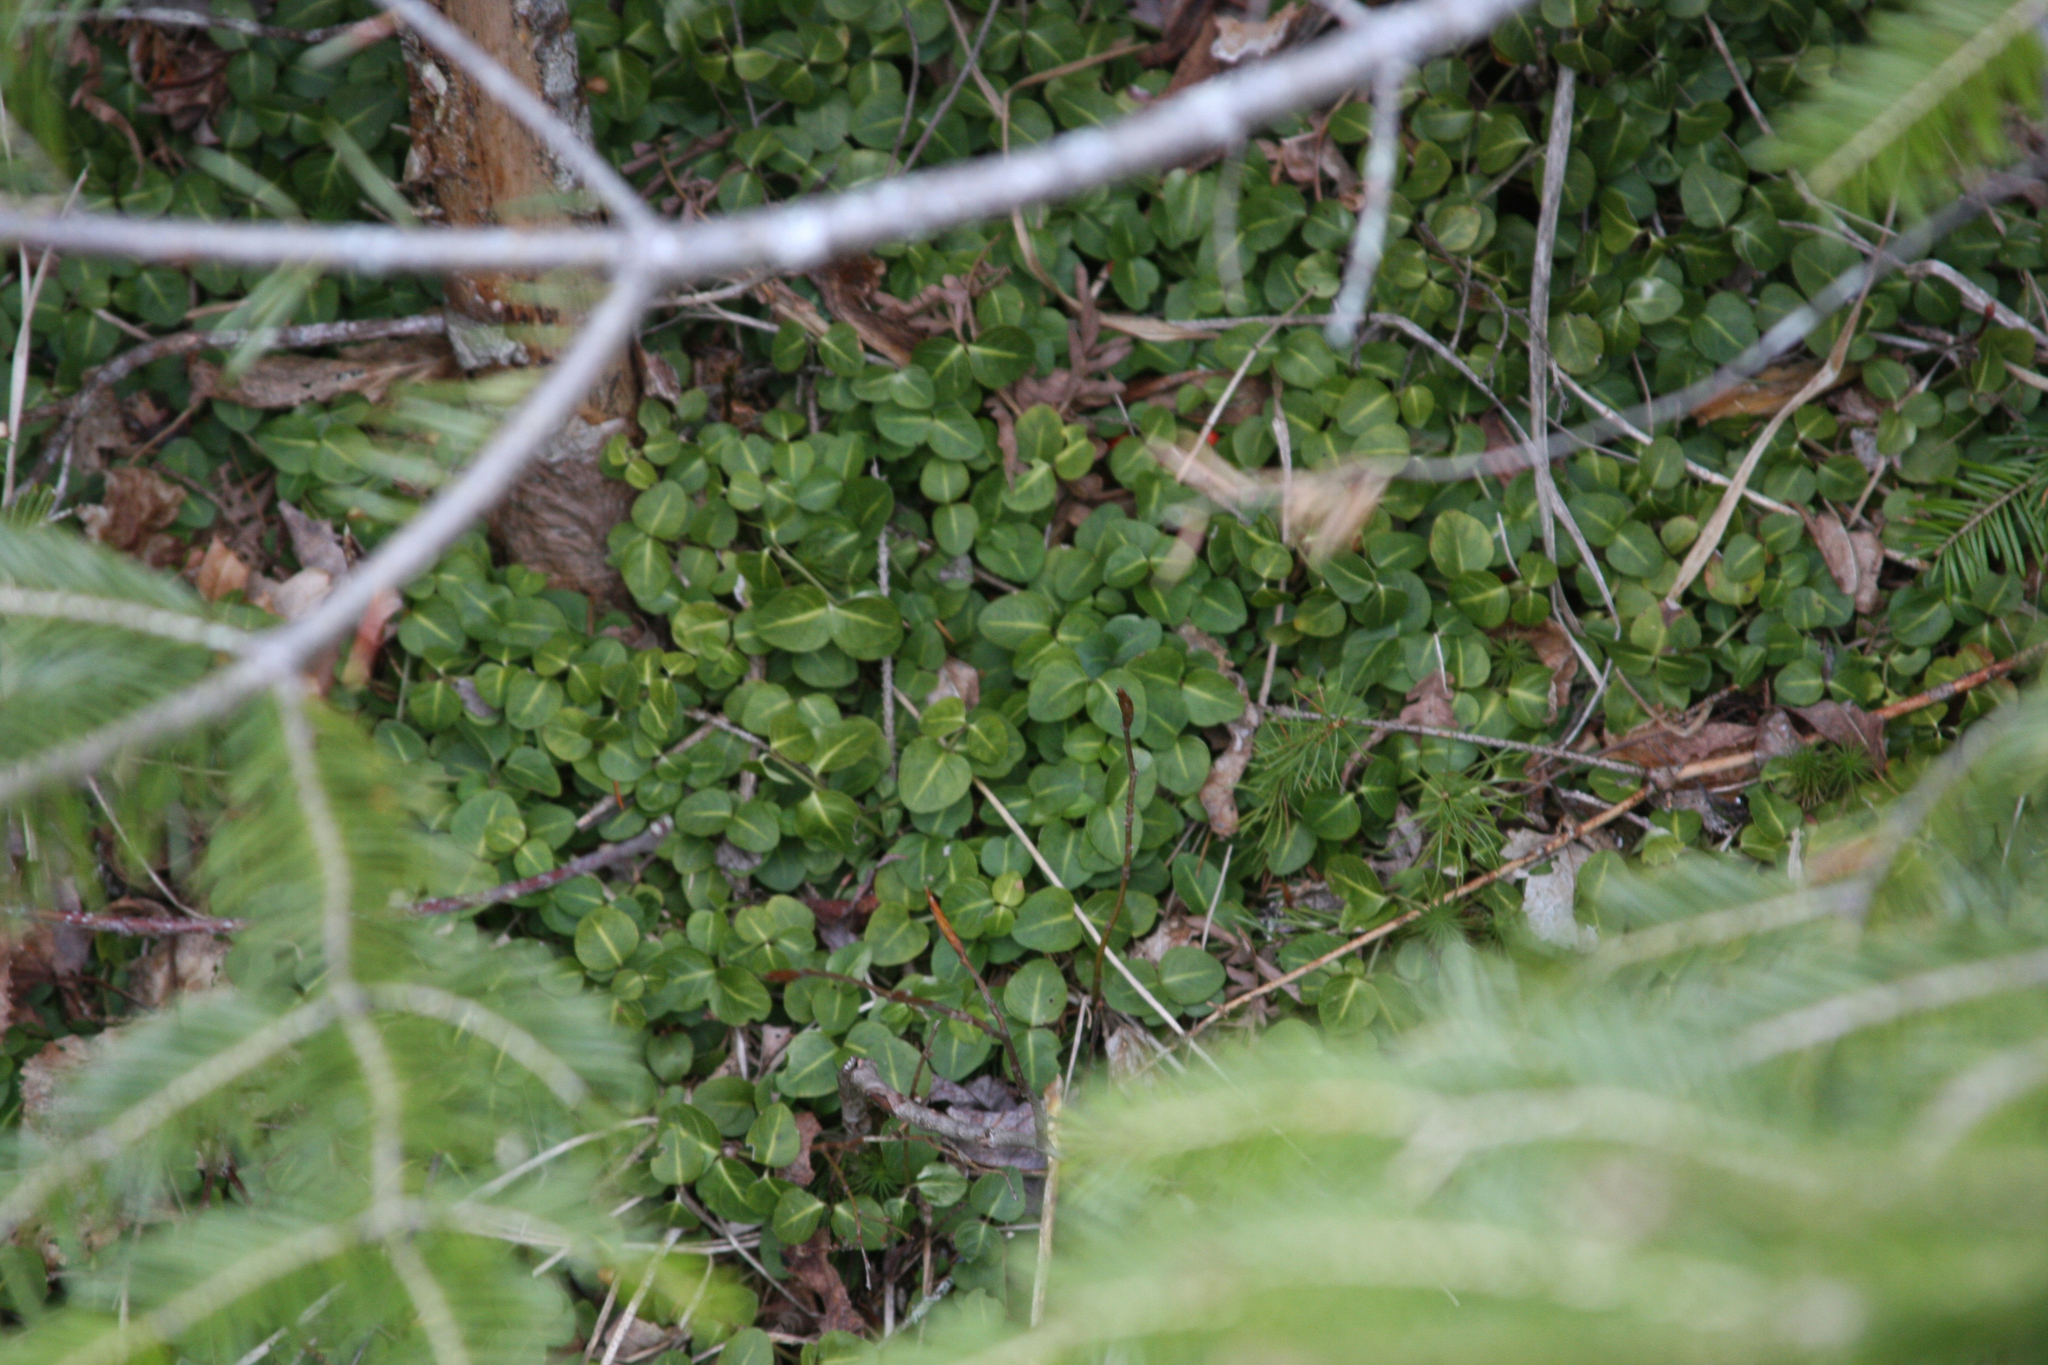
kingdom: Plantae
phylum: Tracheophyta
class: Magnoliopsida
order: Gentianales
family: Rubiaceae
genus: Mitchella
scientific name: Mitchella repens
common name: Partridge-berry
